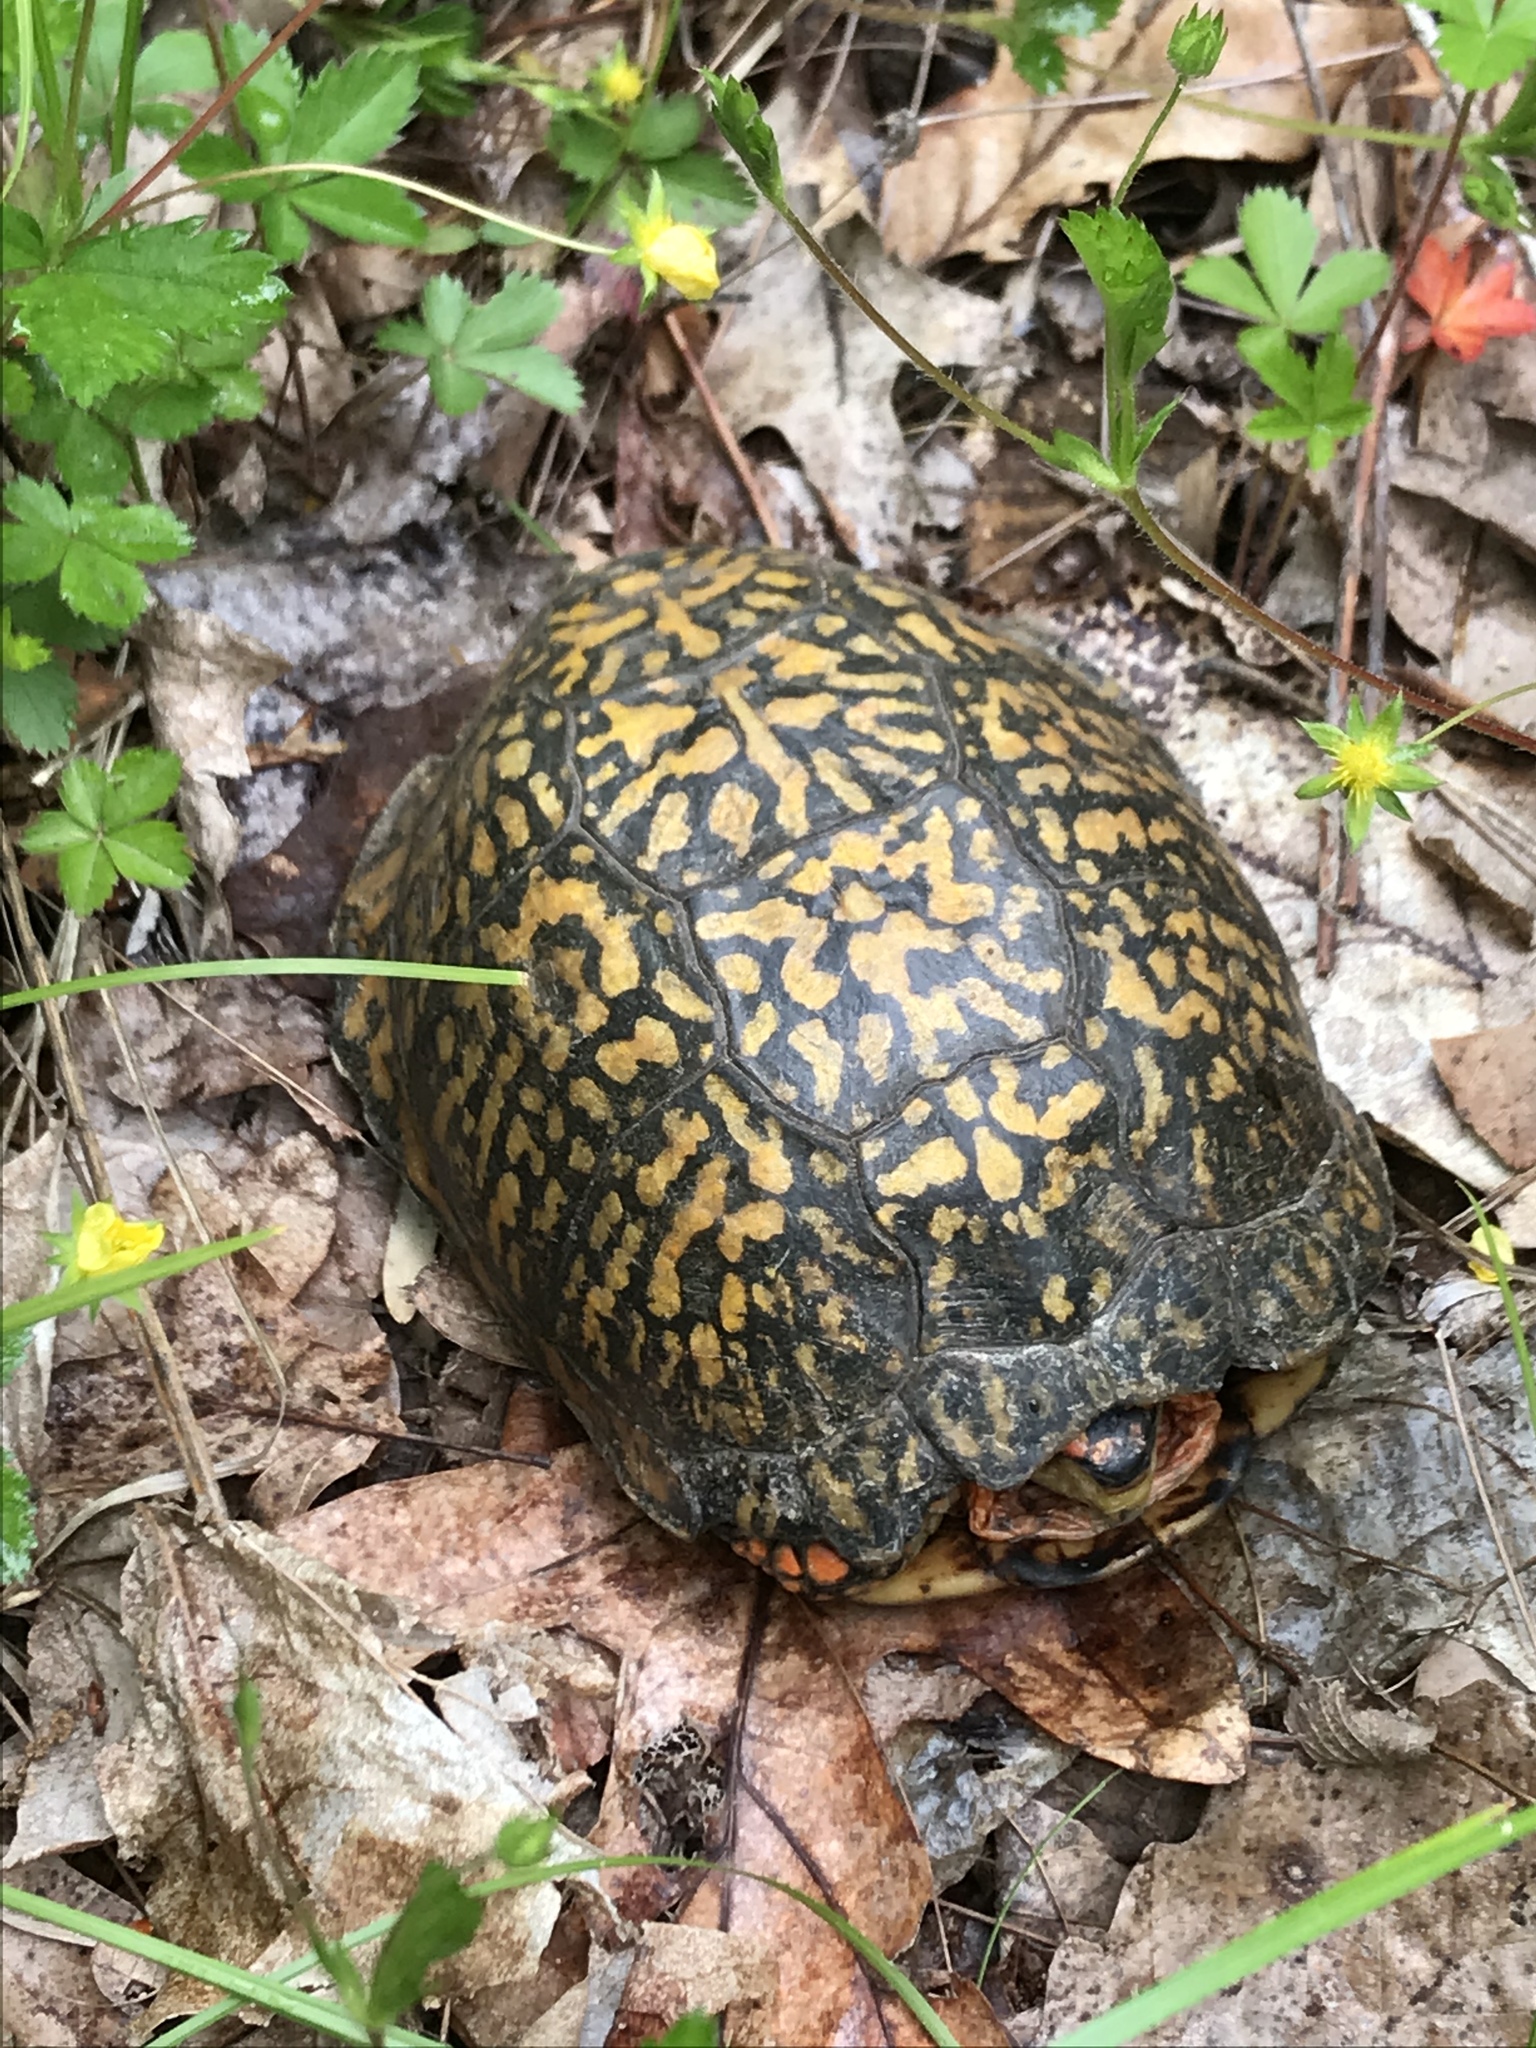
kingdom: Animalia
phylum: Chordata
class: Testudines
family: Emydidae
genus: Terrapene
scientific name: Terrapene carolina
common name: Common box turtle
